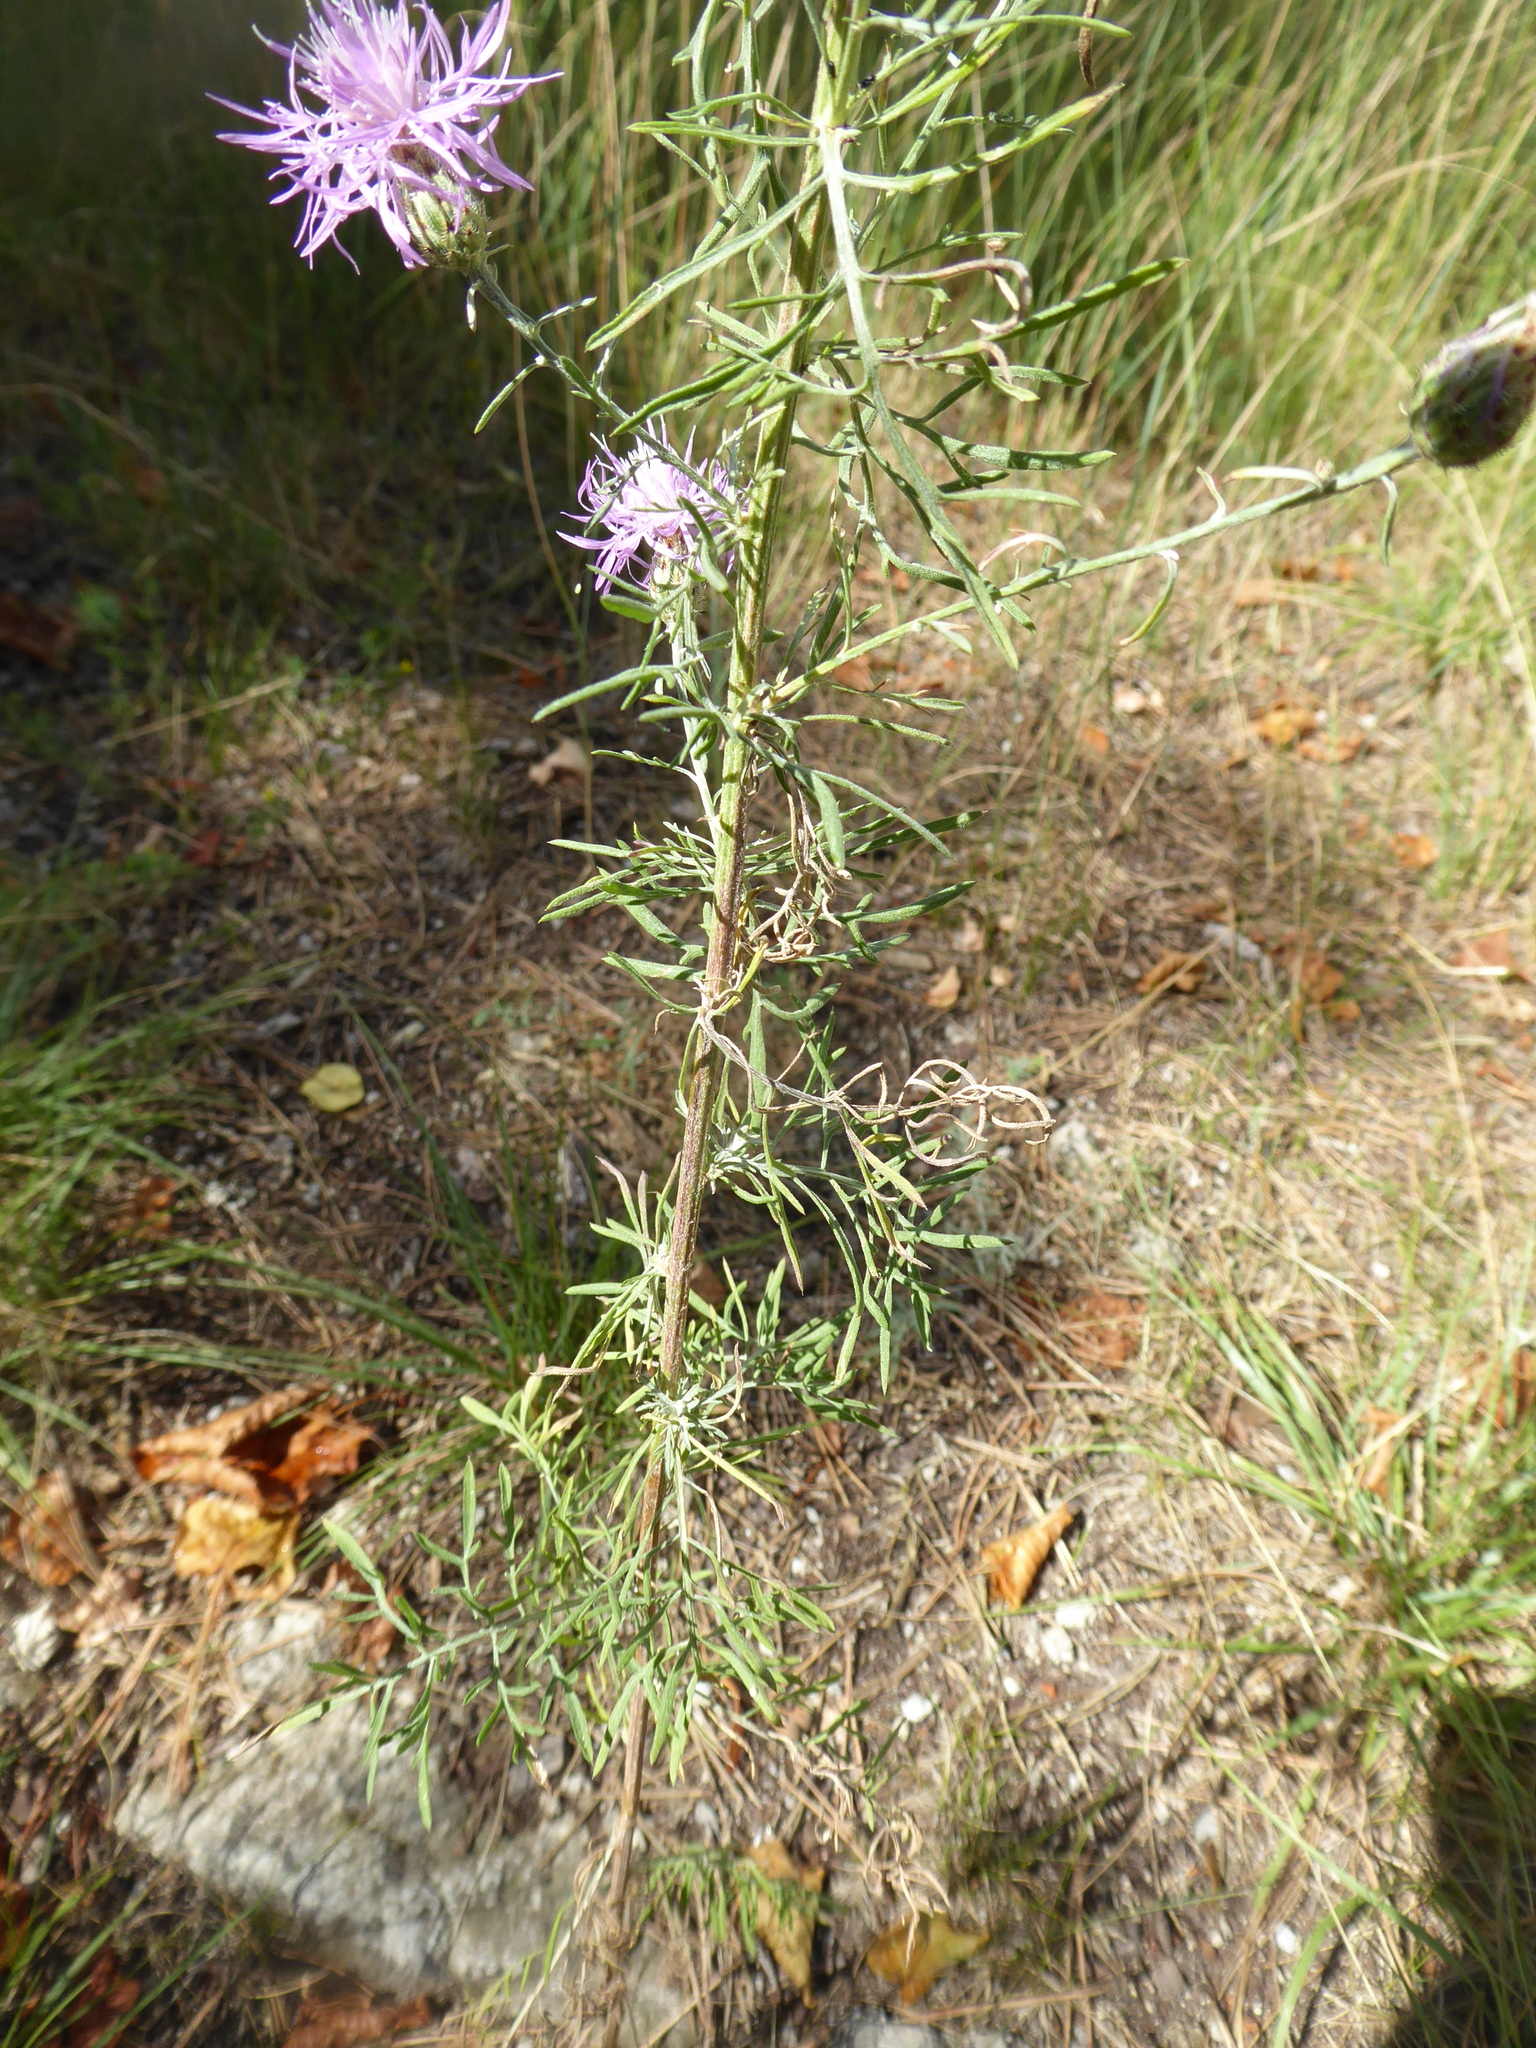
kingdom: Plantae
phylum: Tracheophyta
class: Magnoliopsida
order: Asterales
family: Asteraceae
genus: Centaurea
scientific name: Centaurea stoebe
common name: Spotted knapweed
